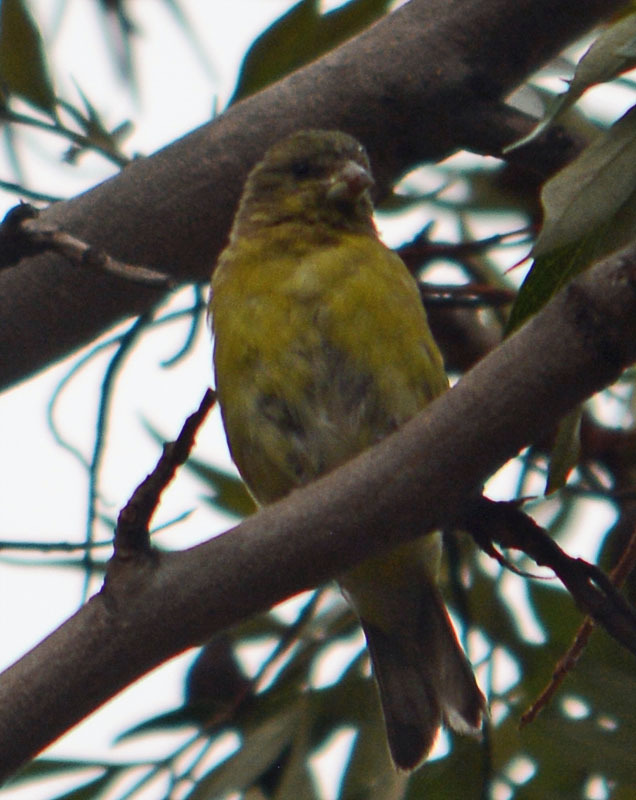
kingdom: Animalia
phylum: Chordata
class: Aves
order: Passeriformes
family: Fringillidae
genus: Spinus
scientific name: Spinus psaltria
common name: Lesser goldfinch
